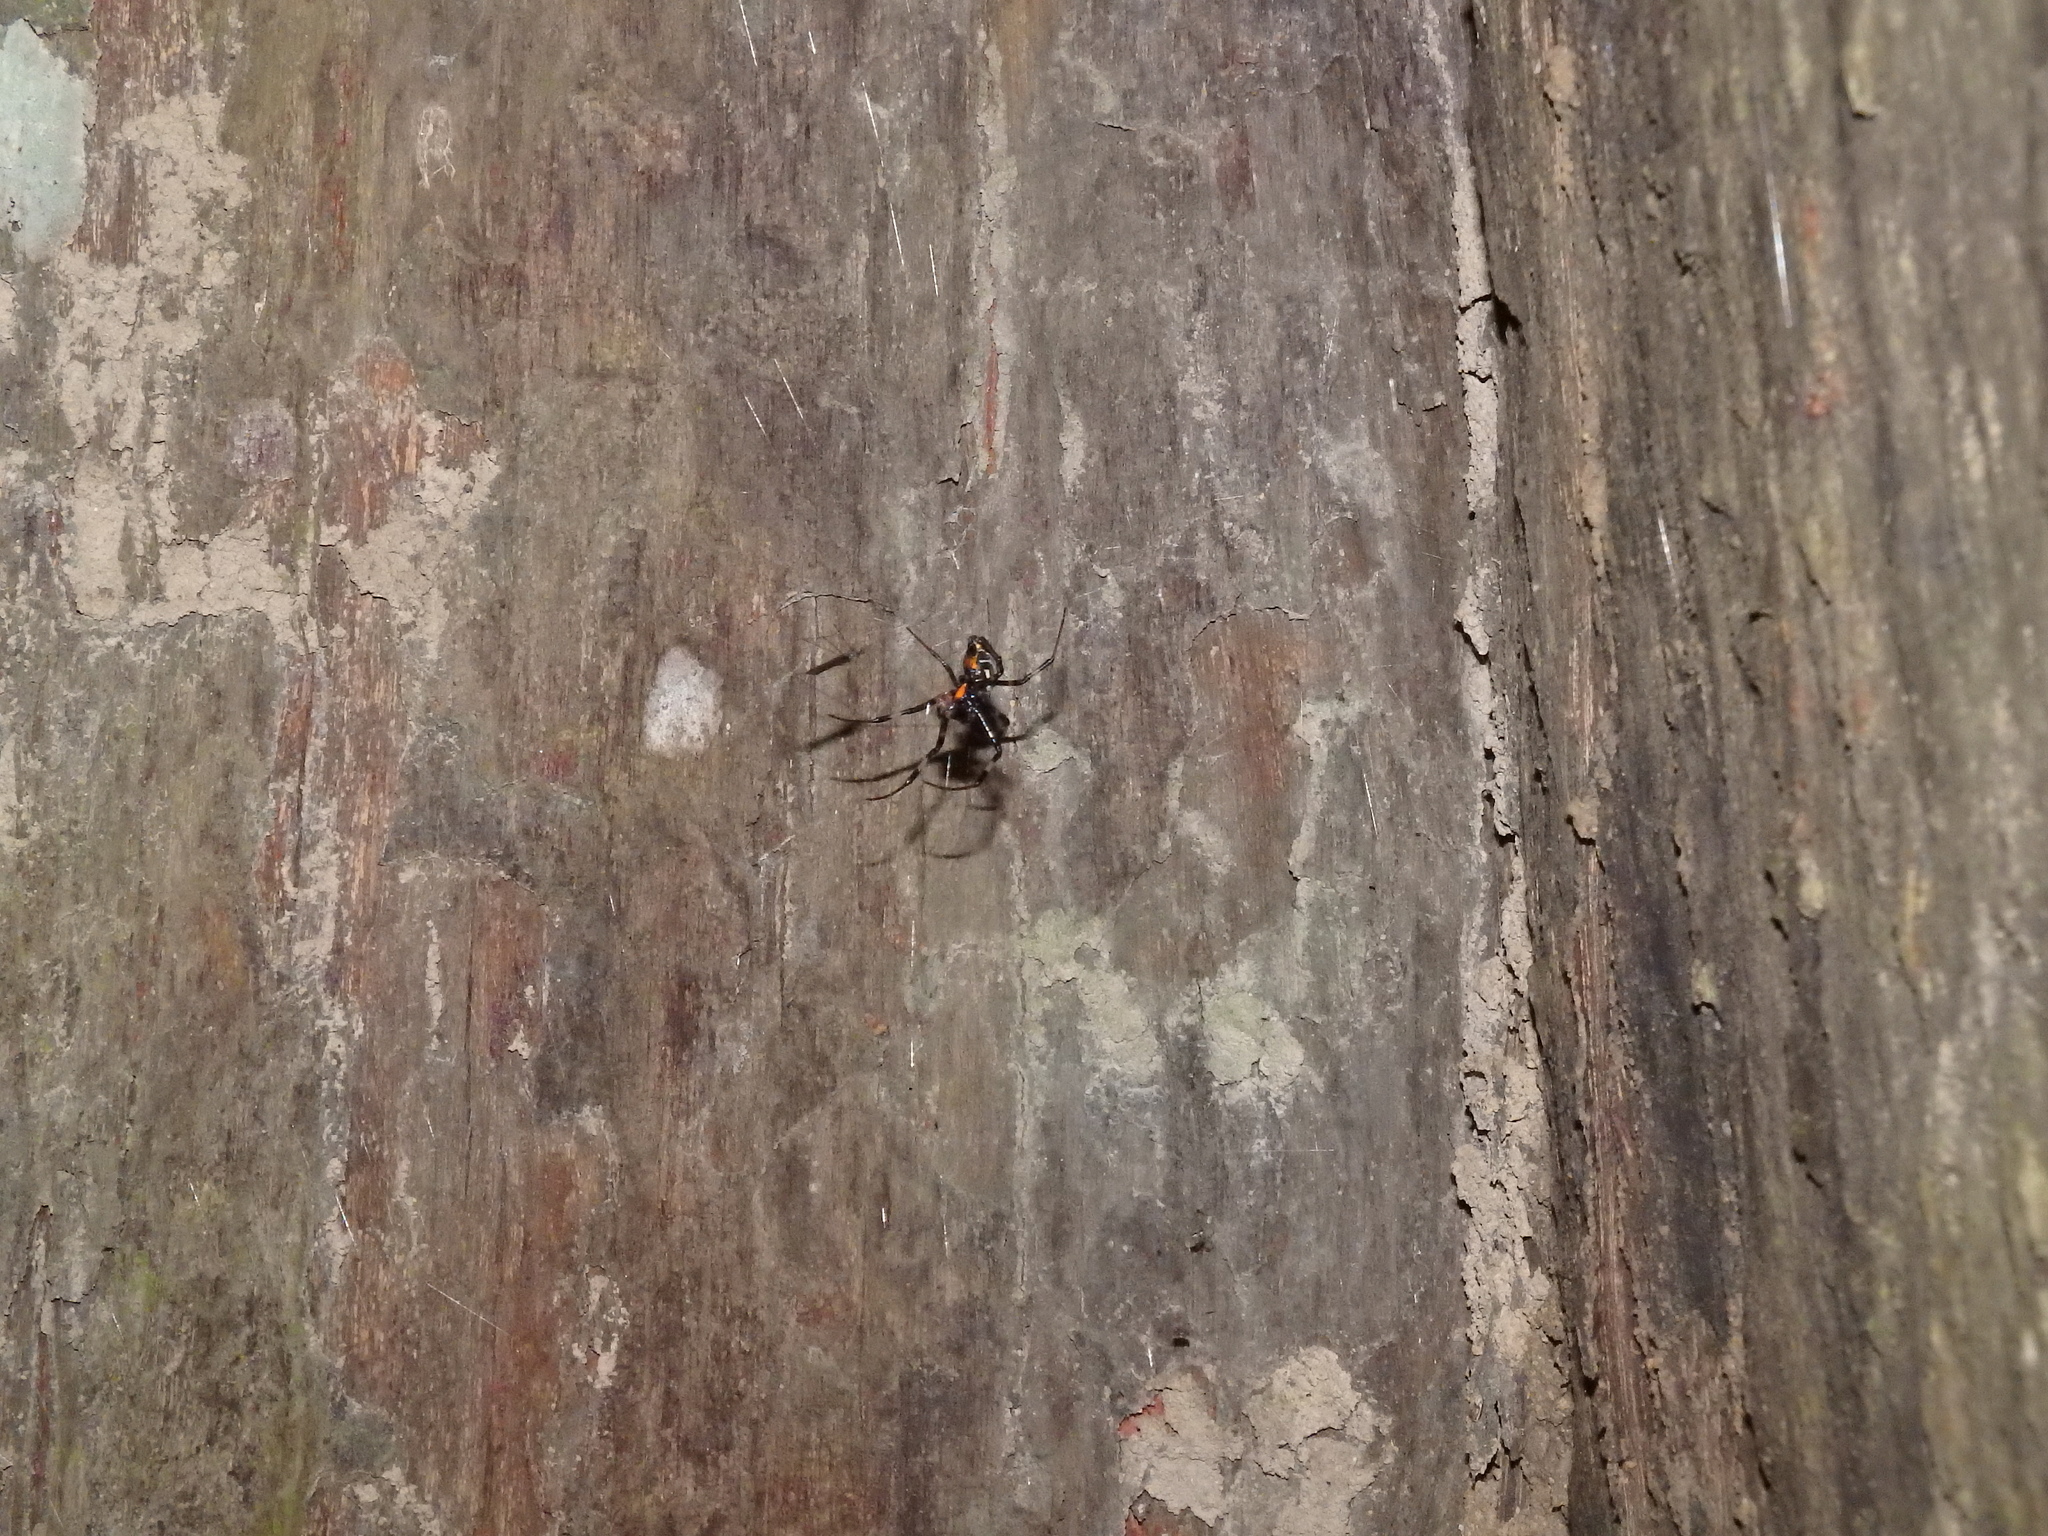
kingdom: Animalia
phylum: Arthropoda
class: Arachnida
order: Araneae
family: Araneidae
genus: Nephilengys
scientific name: Nephilengys malabarensis
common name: Asian hermit spider
